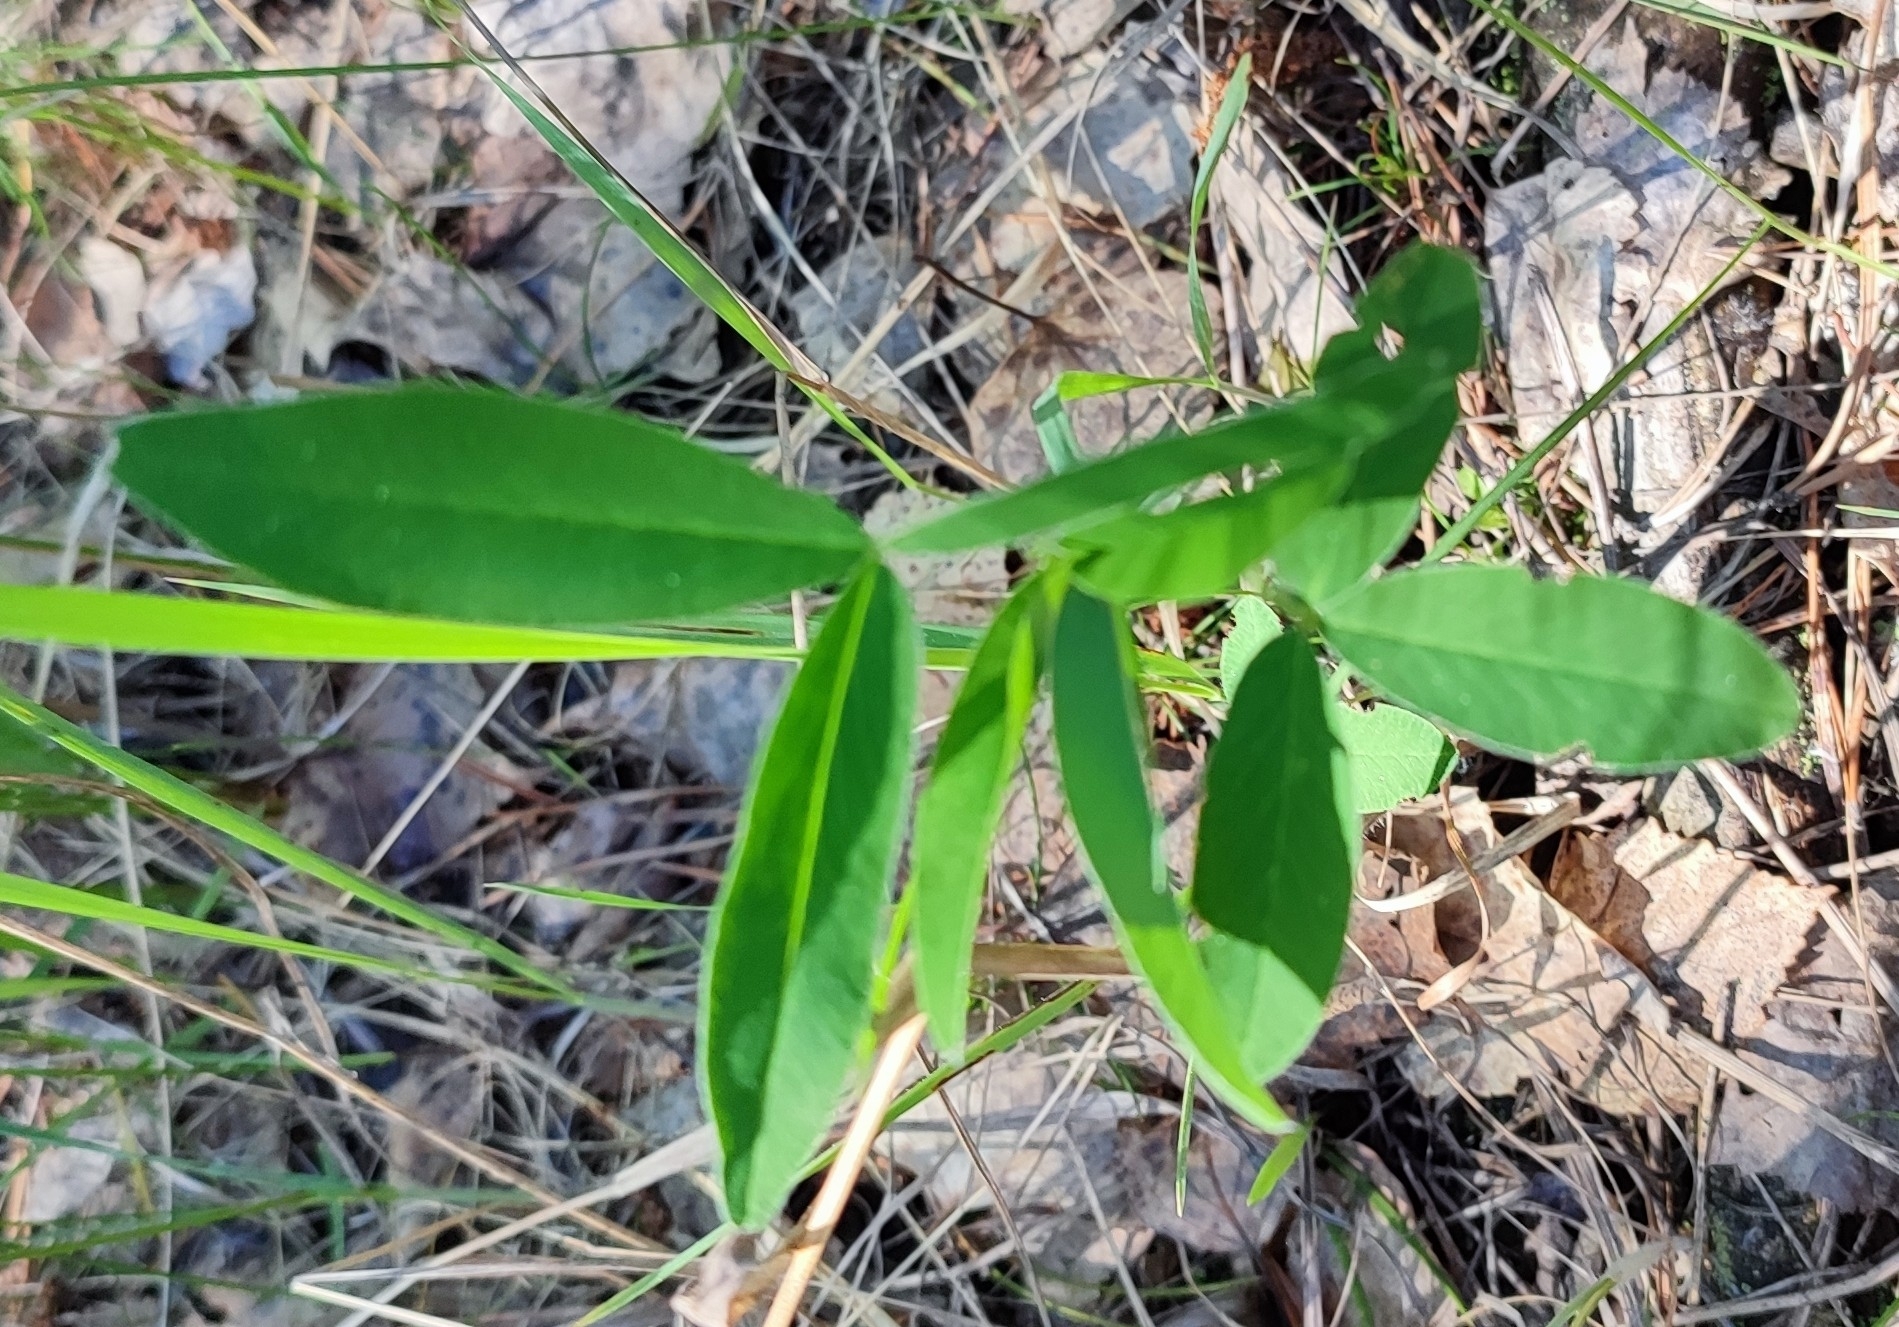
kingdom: Plantae
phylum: Tracheophyta
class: Magnoliopsida
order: Fabales
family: Fabaceae
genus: Trifolium
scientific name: Trifolium medium
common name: Zigzag clover
